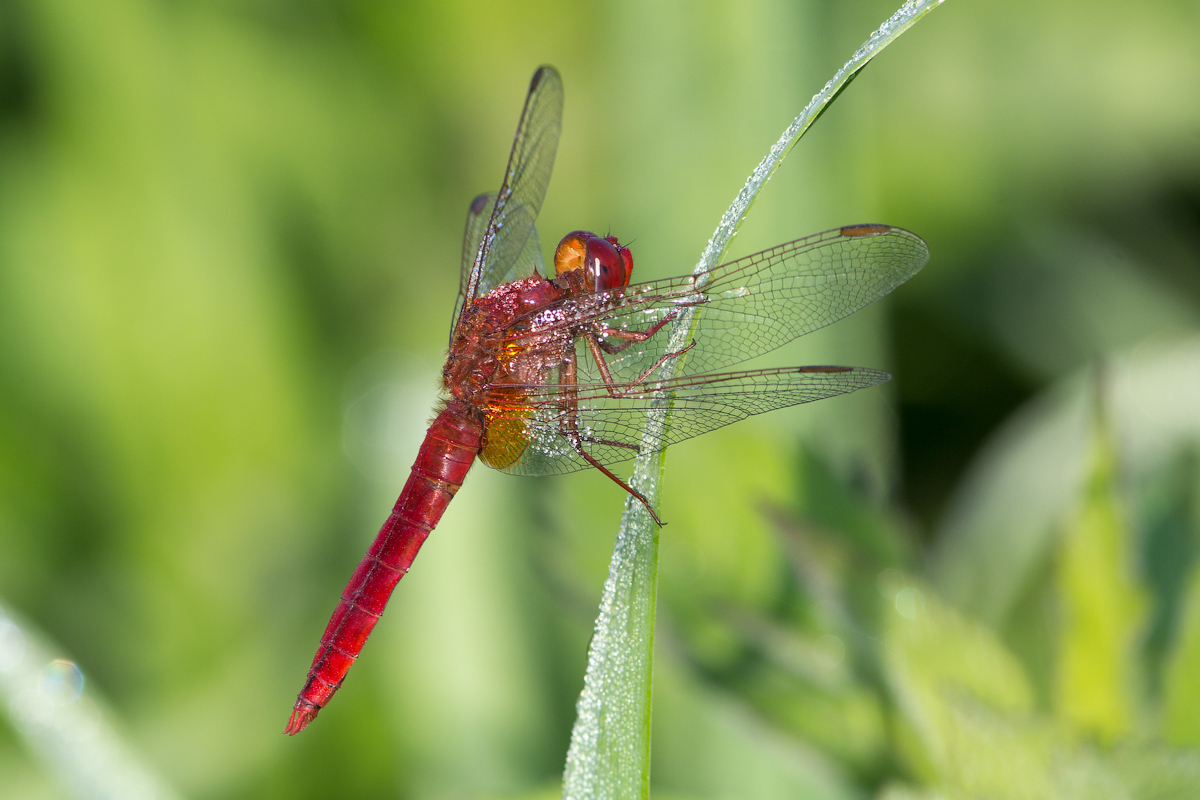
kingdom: Animalia
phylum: Arthropoda
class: Insecta
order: Odonata
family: Libellulidae
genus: Crocothemis
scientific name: Crocothemis erythraea
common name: Scarlet dragonfly
